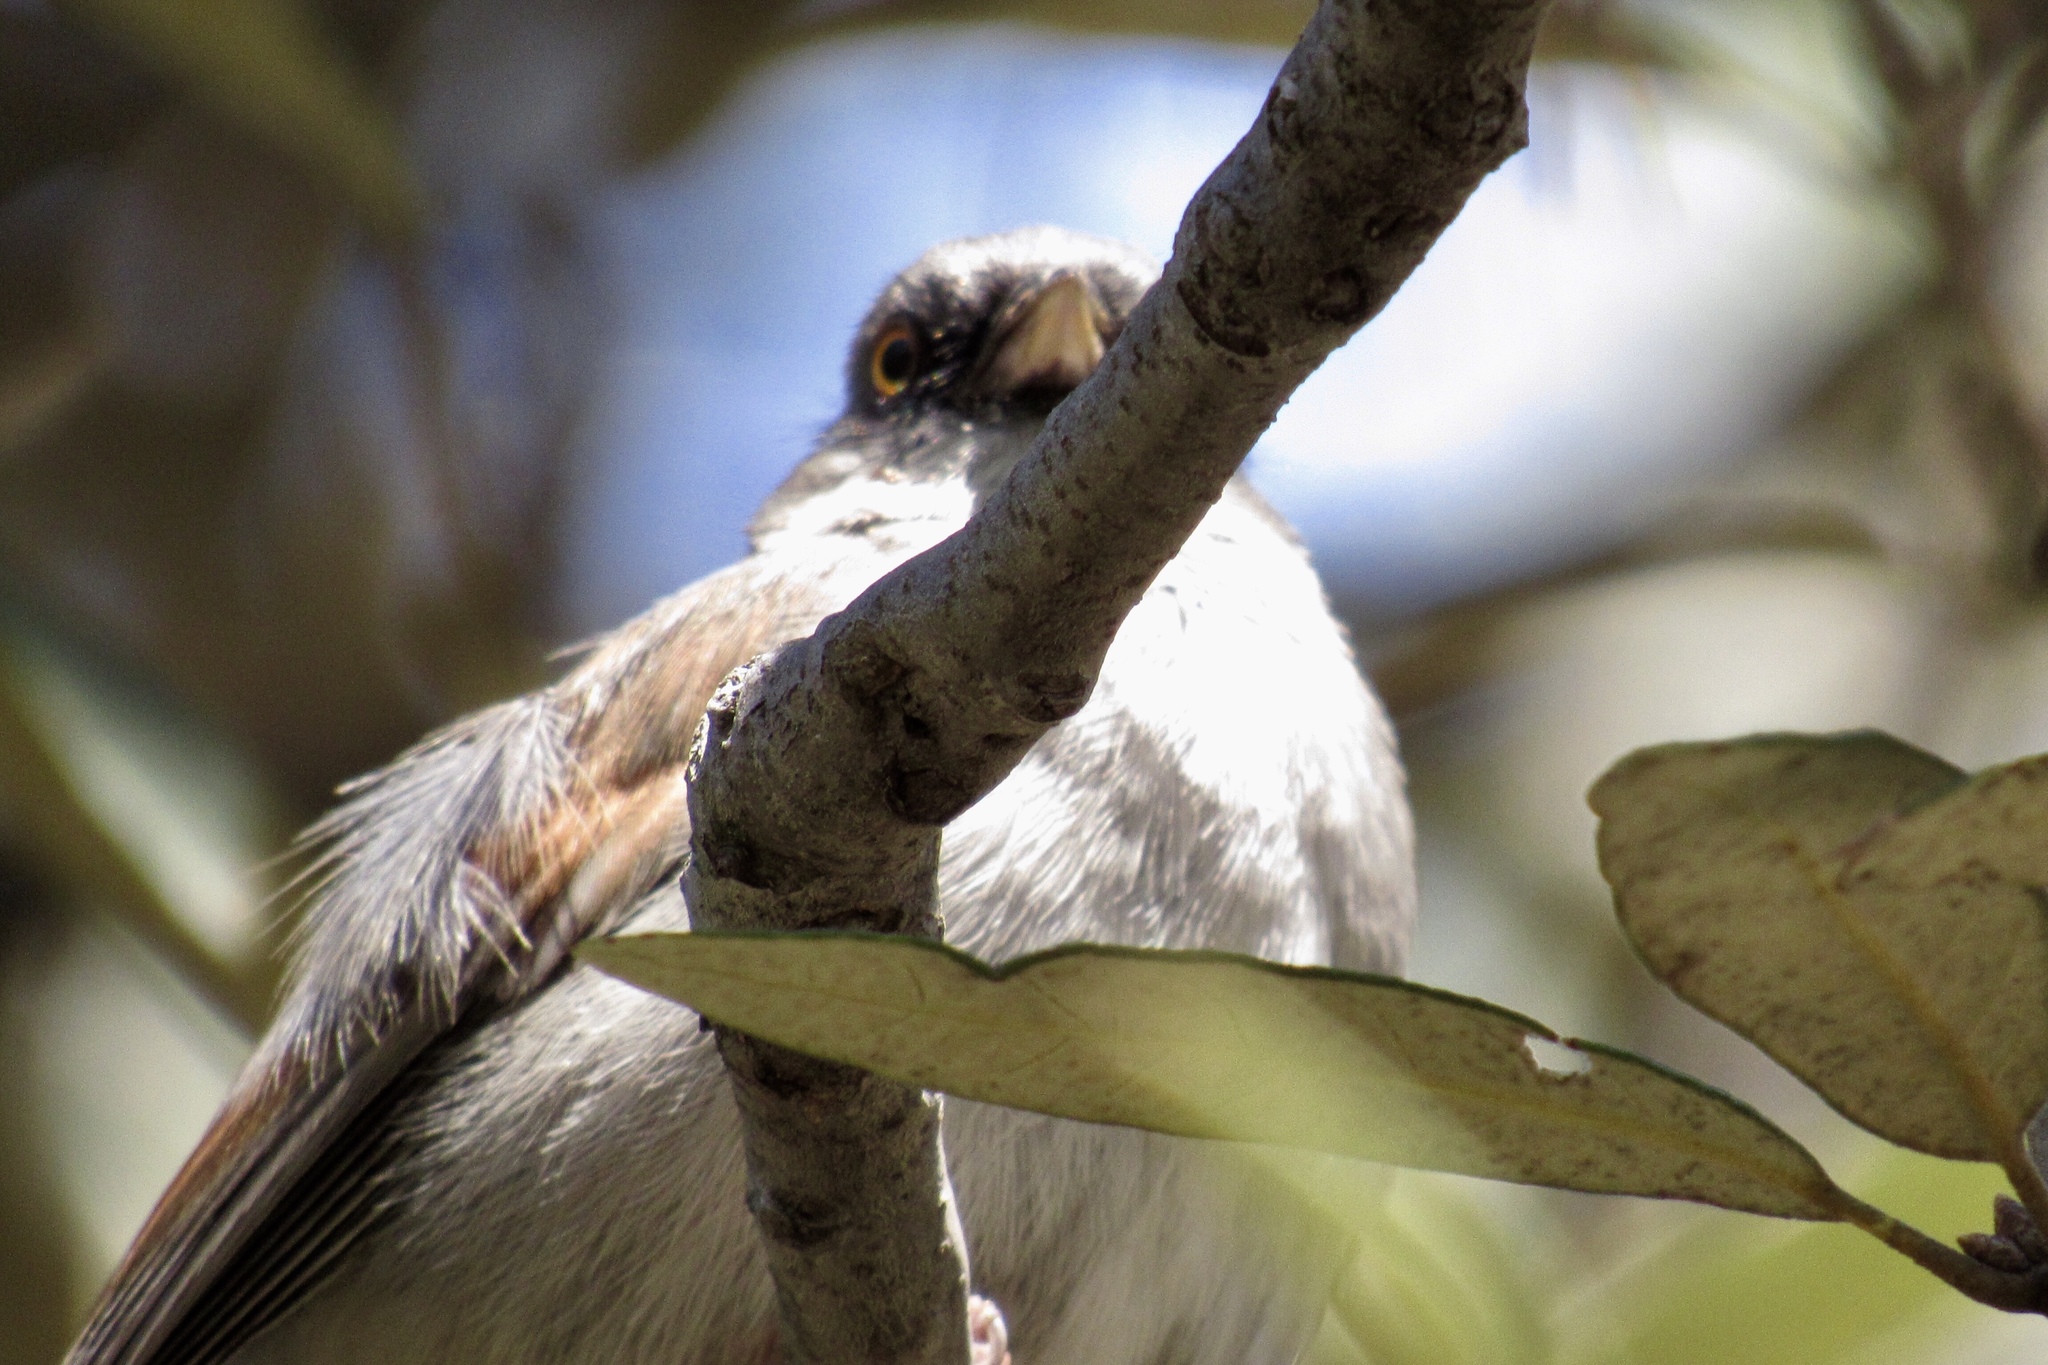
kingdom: Animalia
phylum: Chordata
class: Aves
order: Passeriformes
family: Passerellidae
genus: Junco
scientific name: Junco phaeonotus
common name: Yellow-eyed junco
